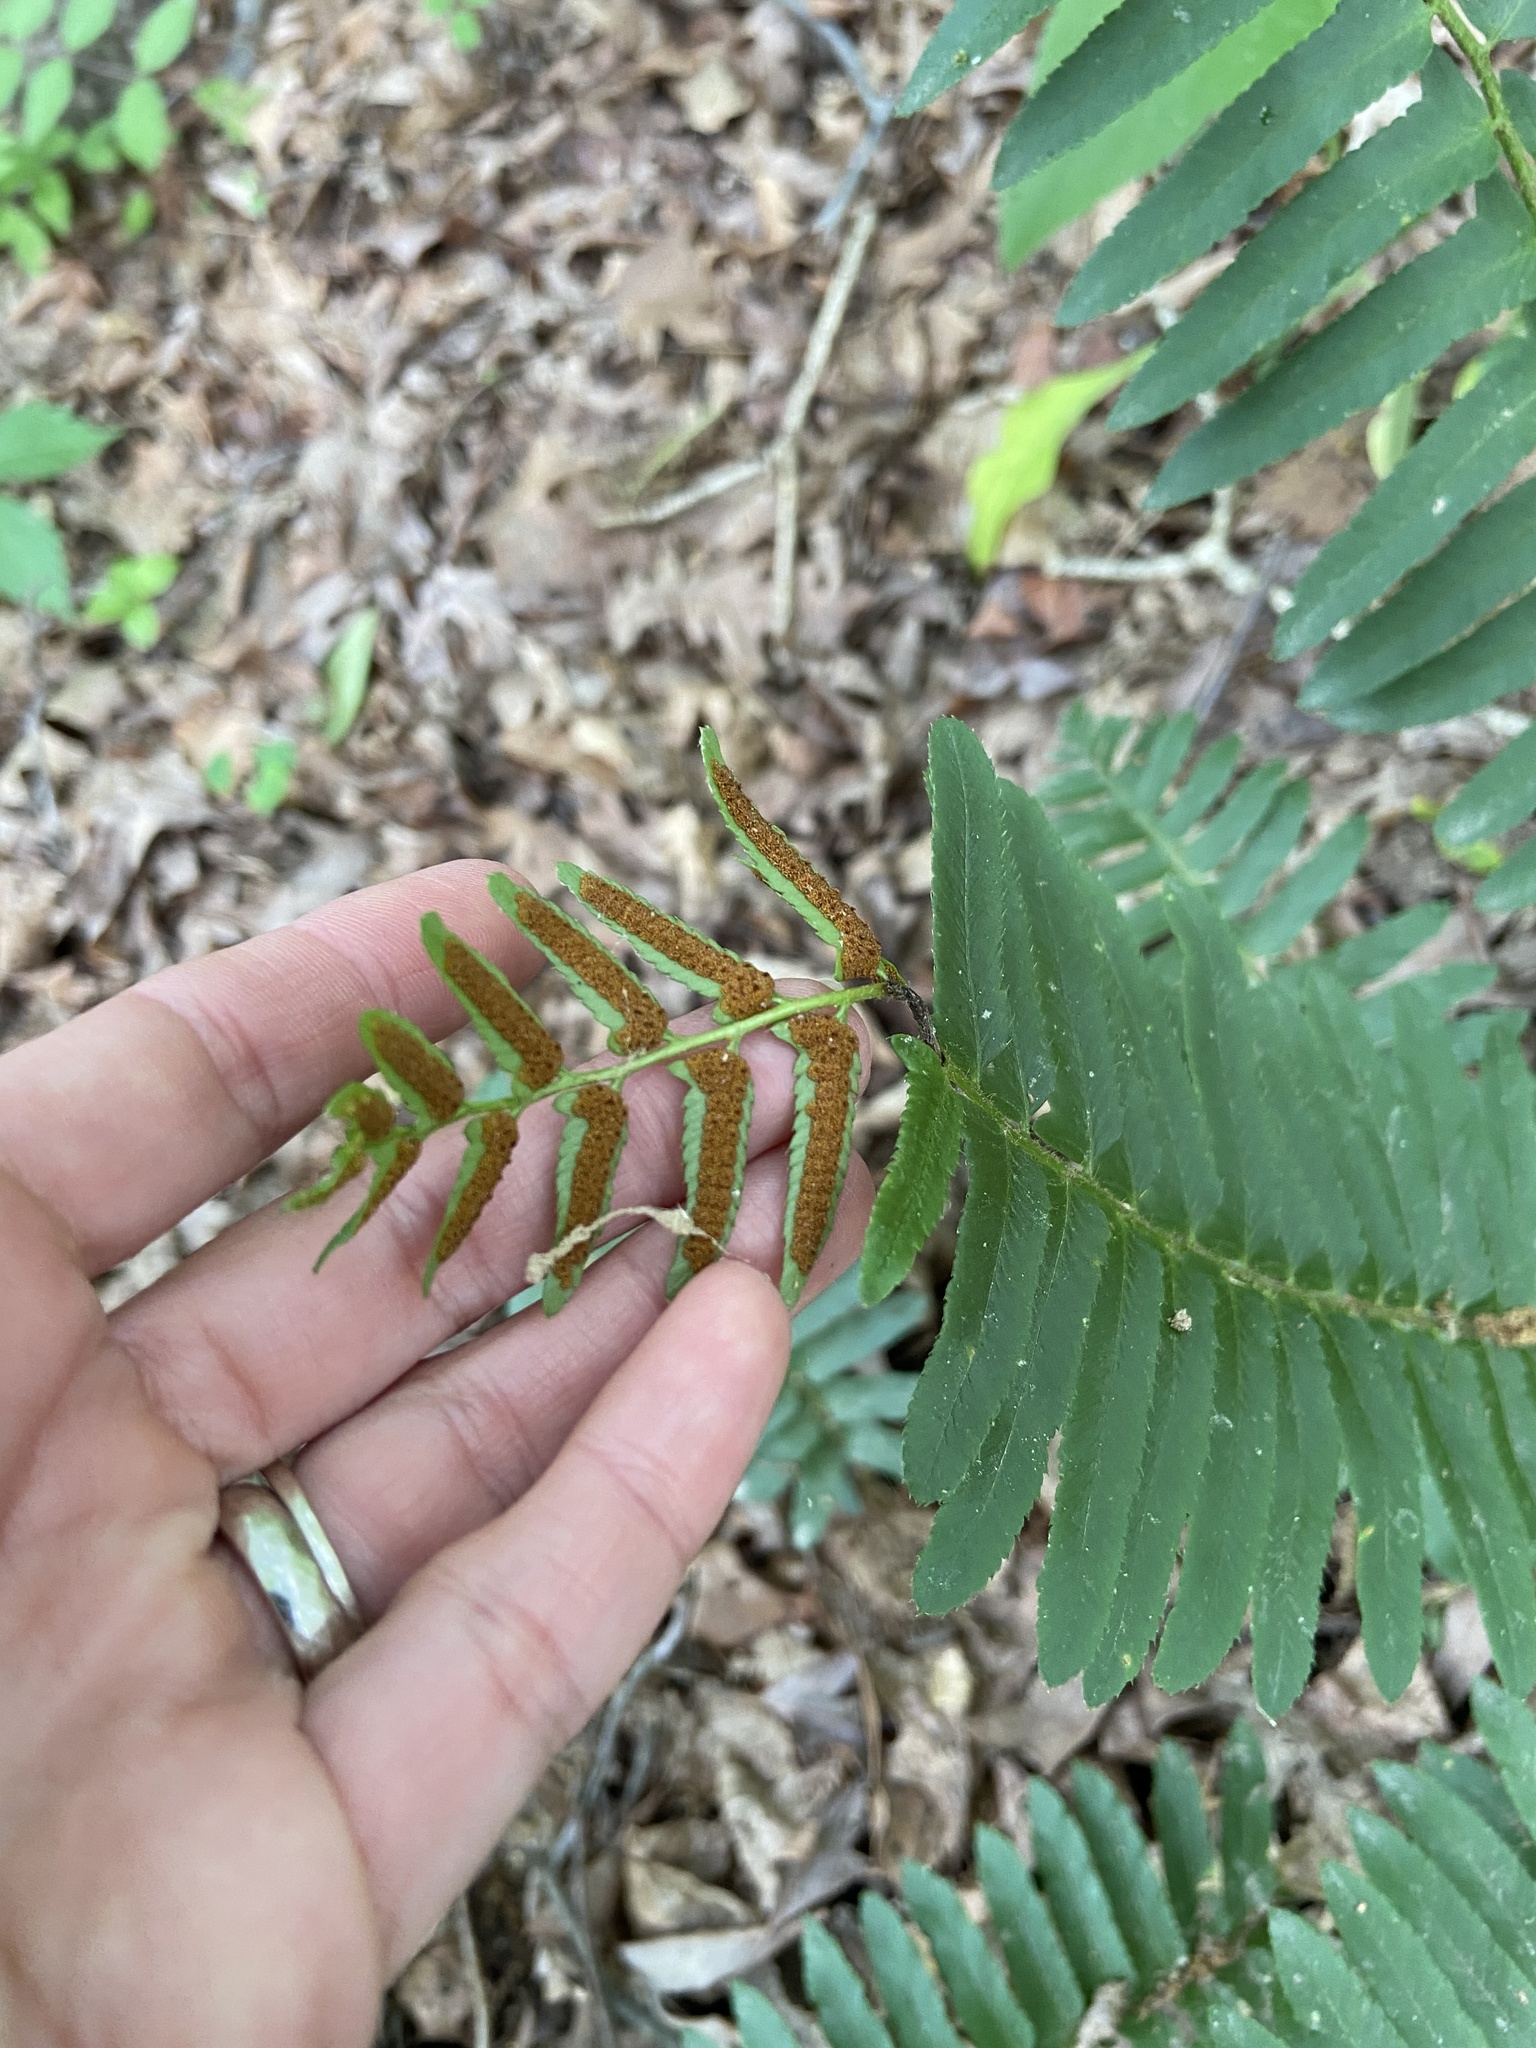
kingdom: Plantae
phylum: Tracheophyta
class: Polypodiopsida
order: Polypodiales
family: Dryopteridaceae
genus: Polystichum
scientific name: Polystichum acrostichoides
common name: Christmas fern
